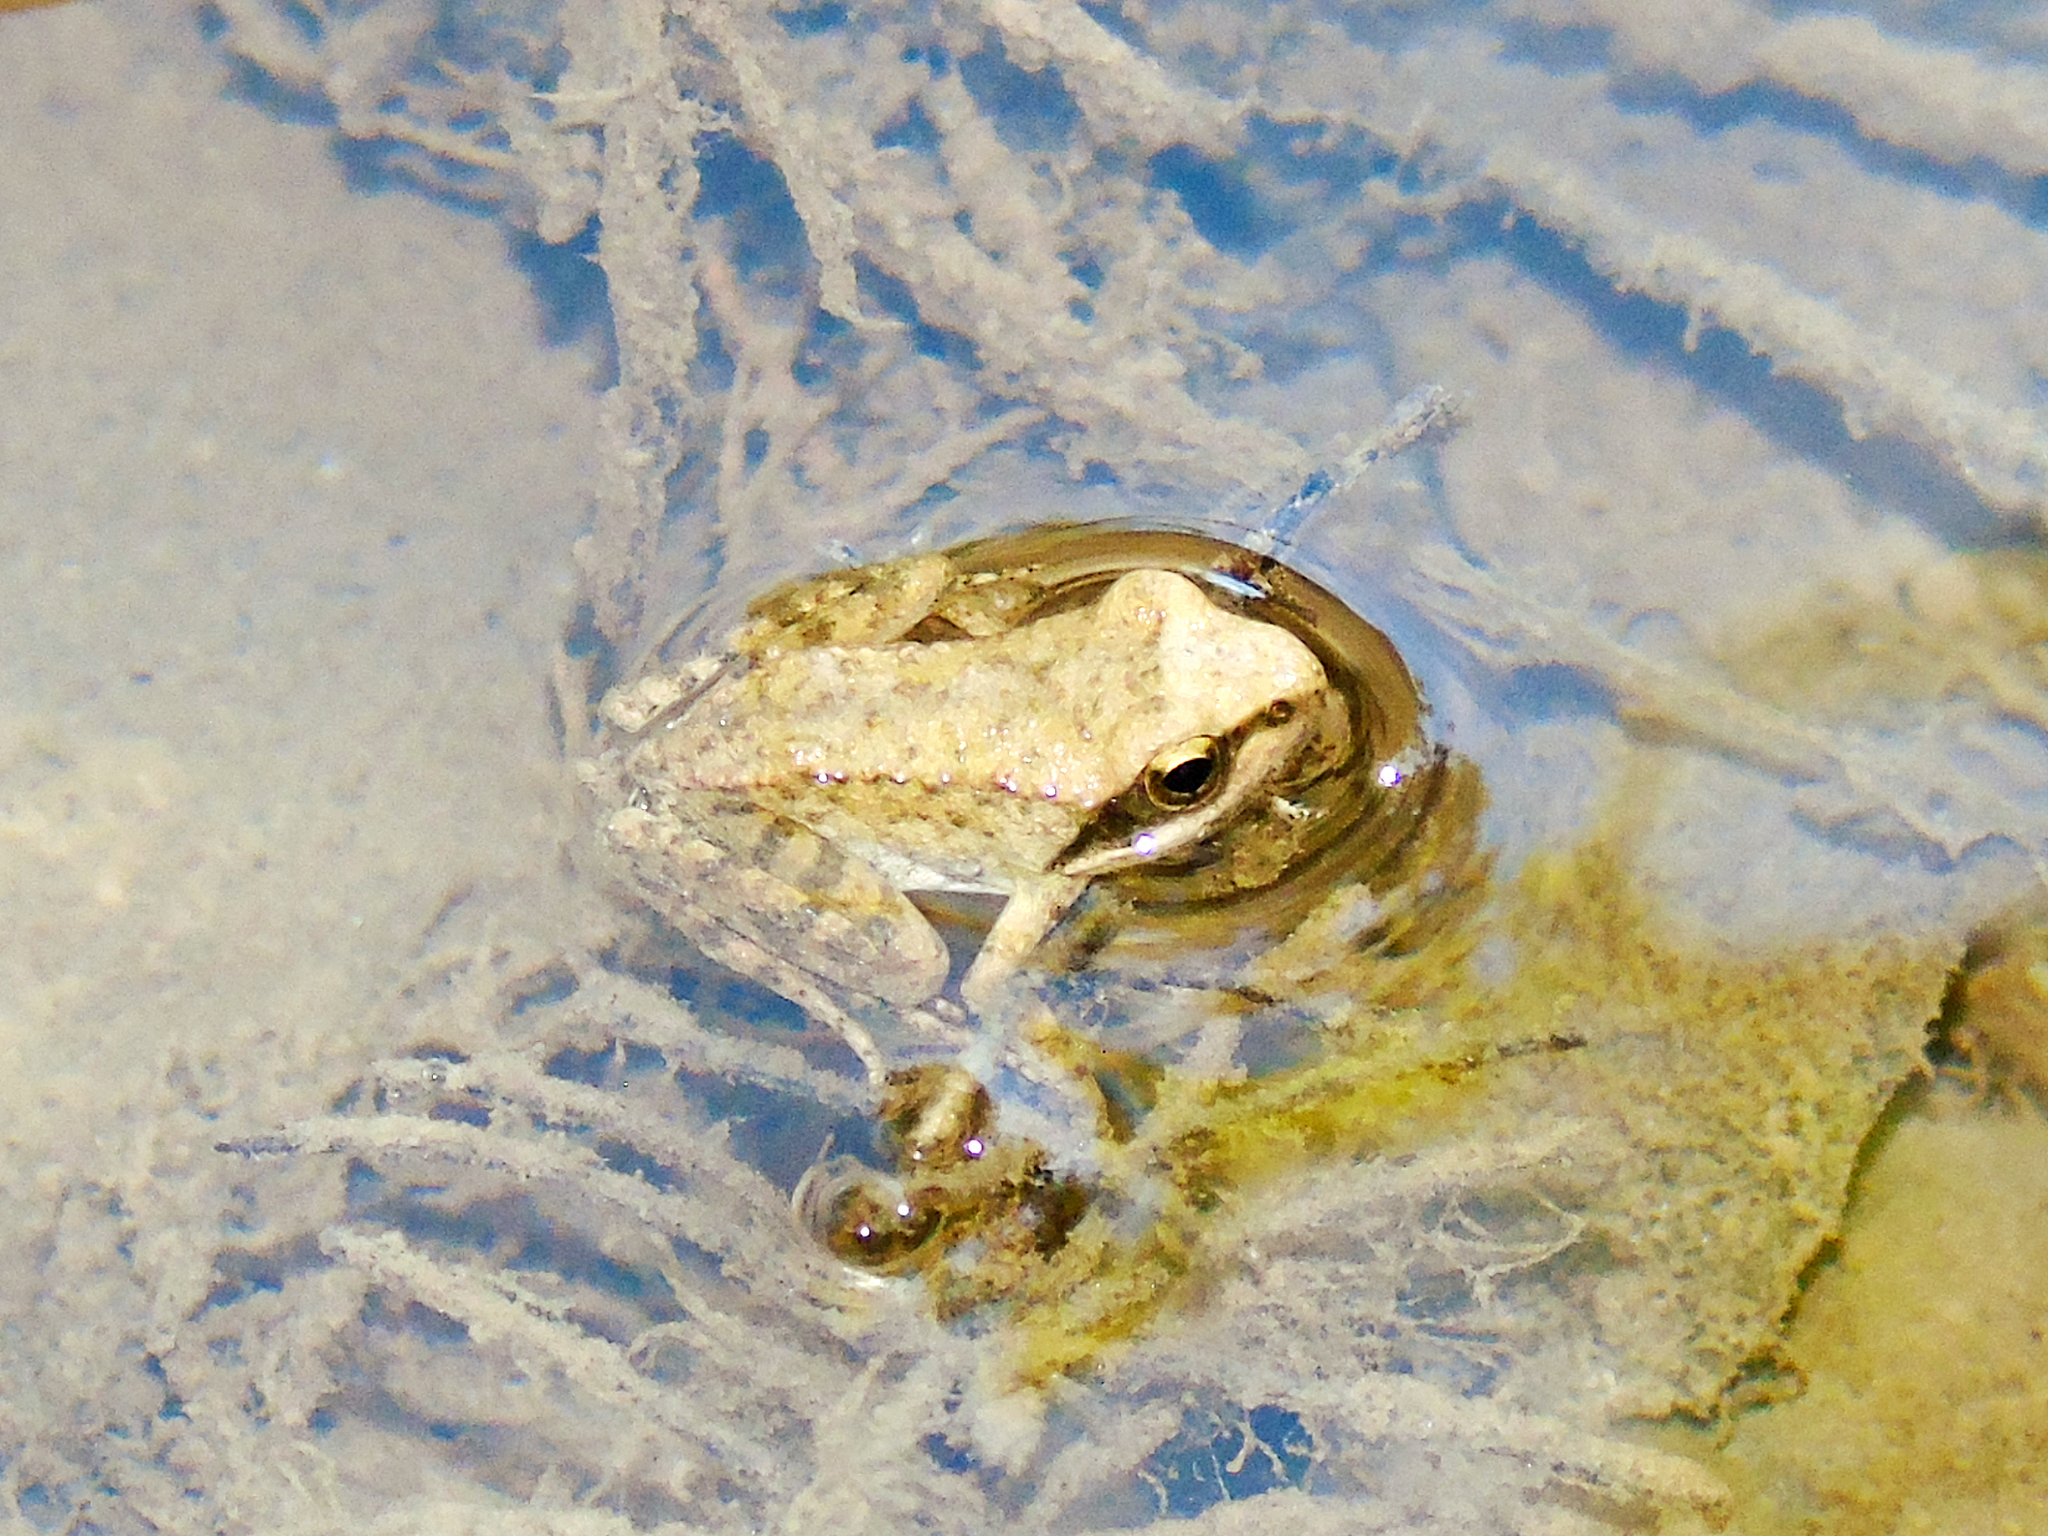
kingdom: Animalia
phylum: Chordata
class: Amphibia
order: Anura
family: Ranidae
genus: Rana
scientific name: Rana graeca
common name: Greek stream frog
